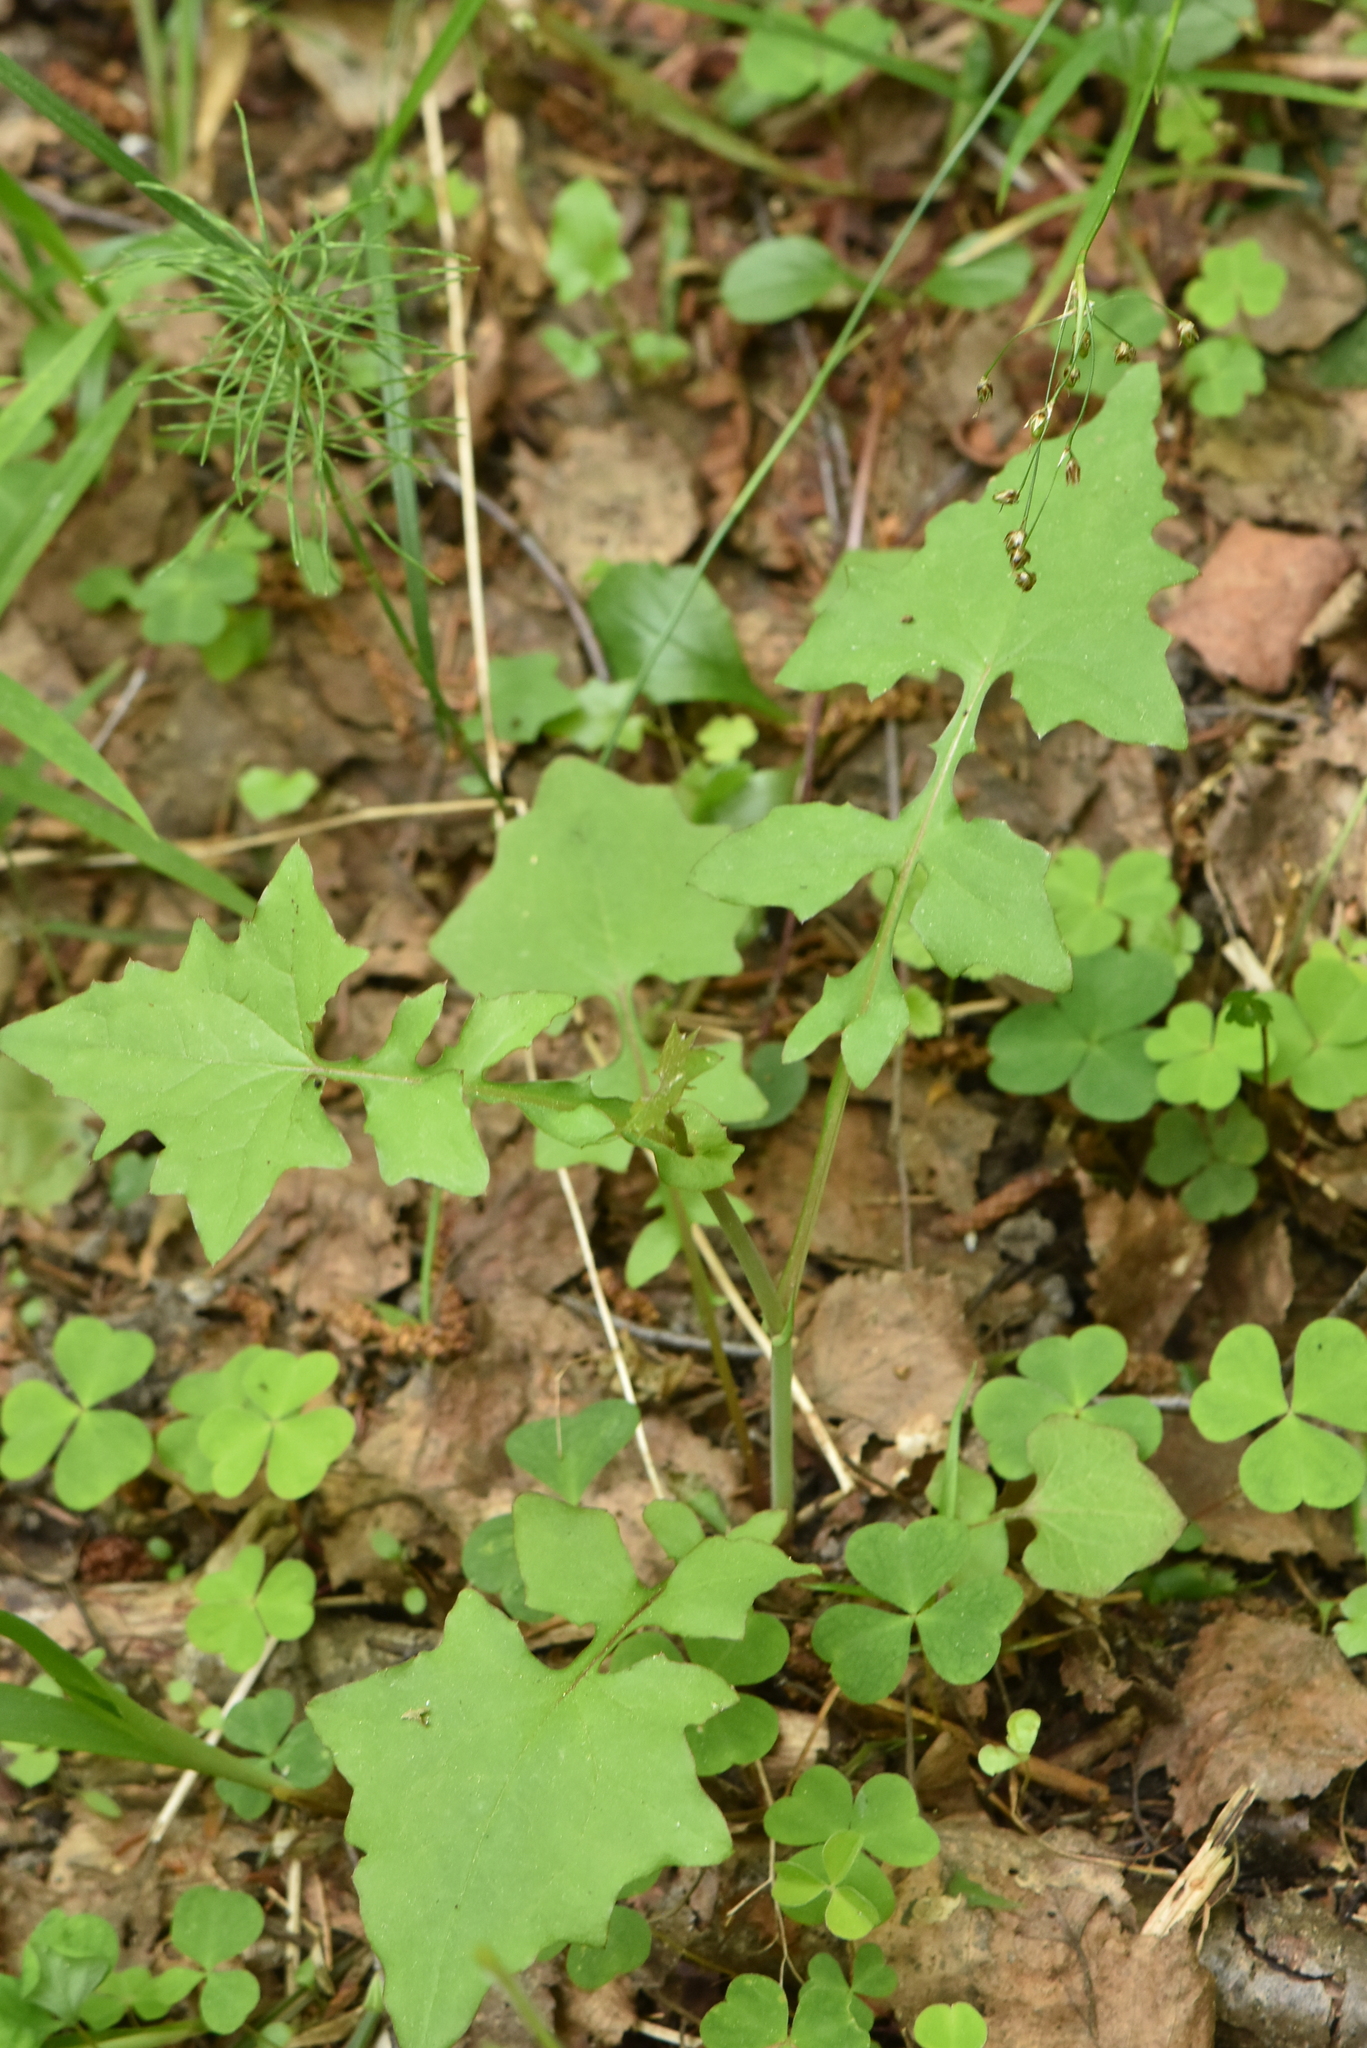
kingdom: Plantae
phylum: Tracheophyta
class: Magnoliopsida
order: Asterales
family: Asteraceae
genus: Mycelis
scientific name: Mycelis muralis
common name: Wall lettuce
